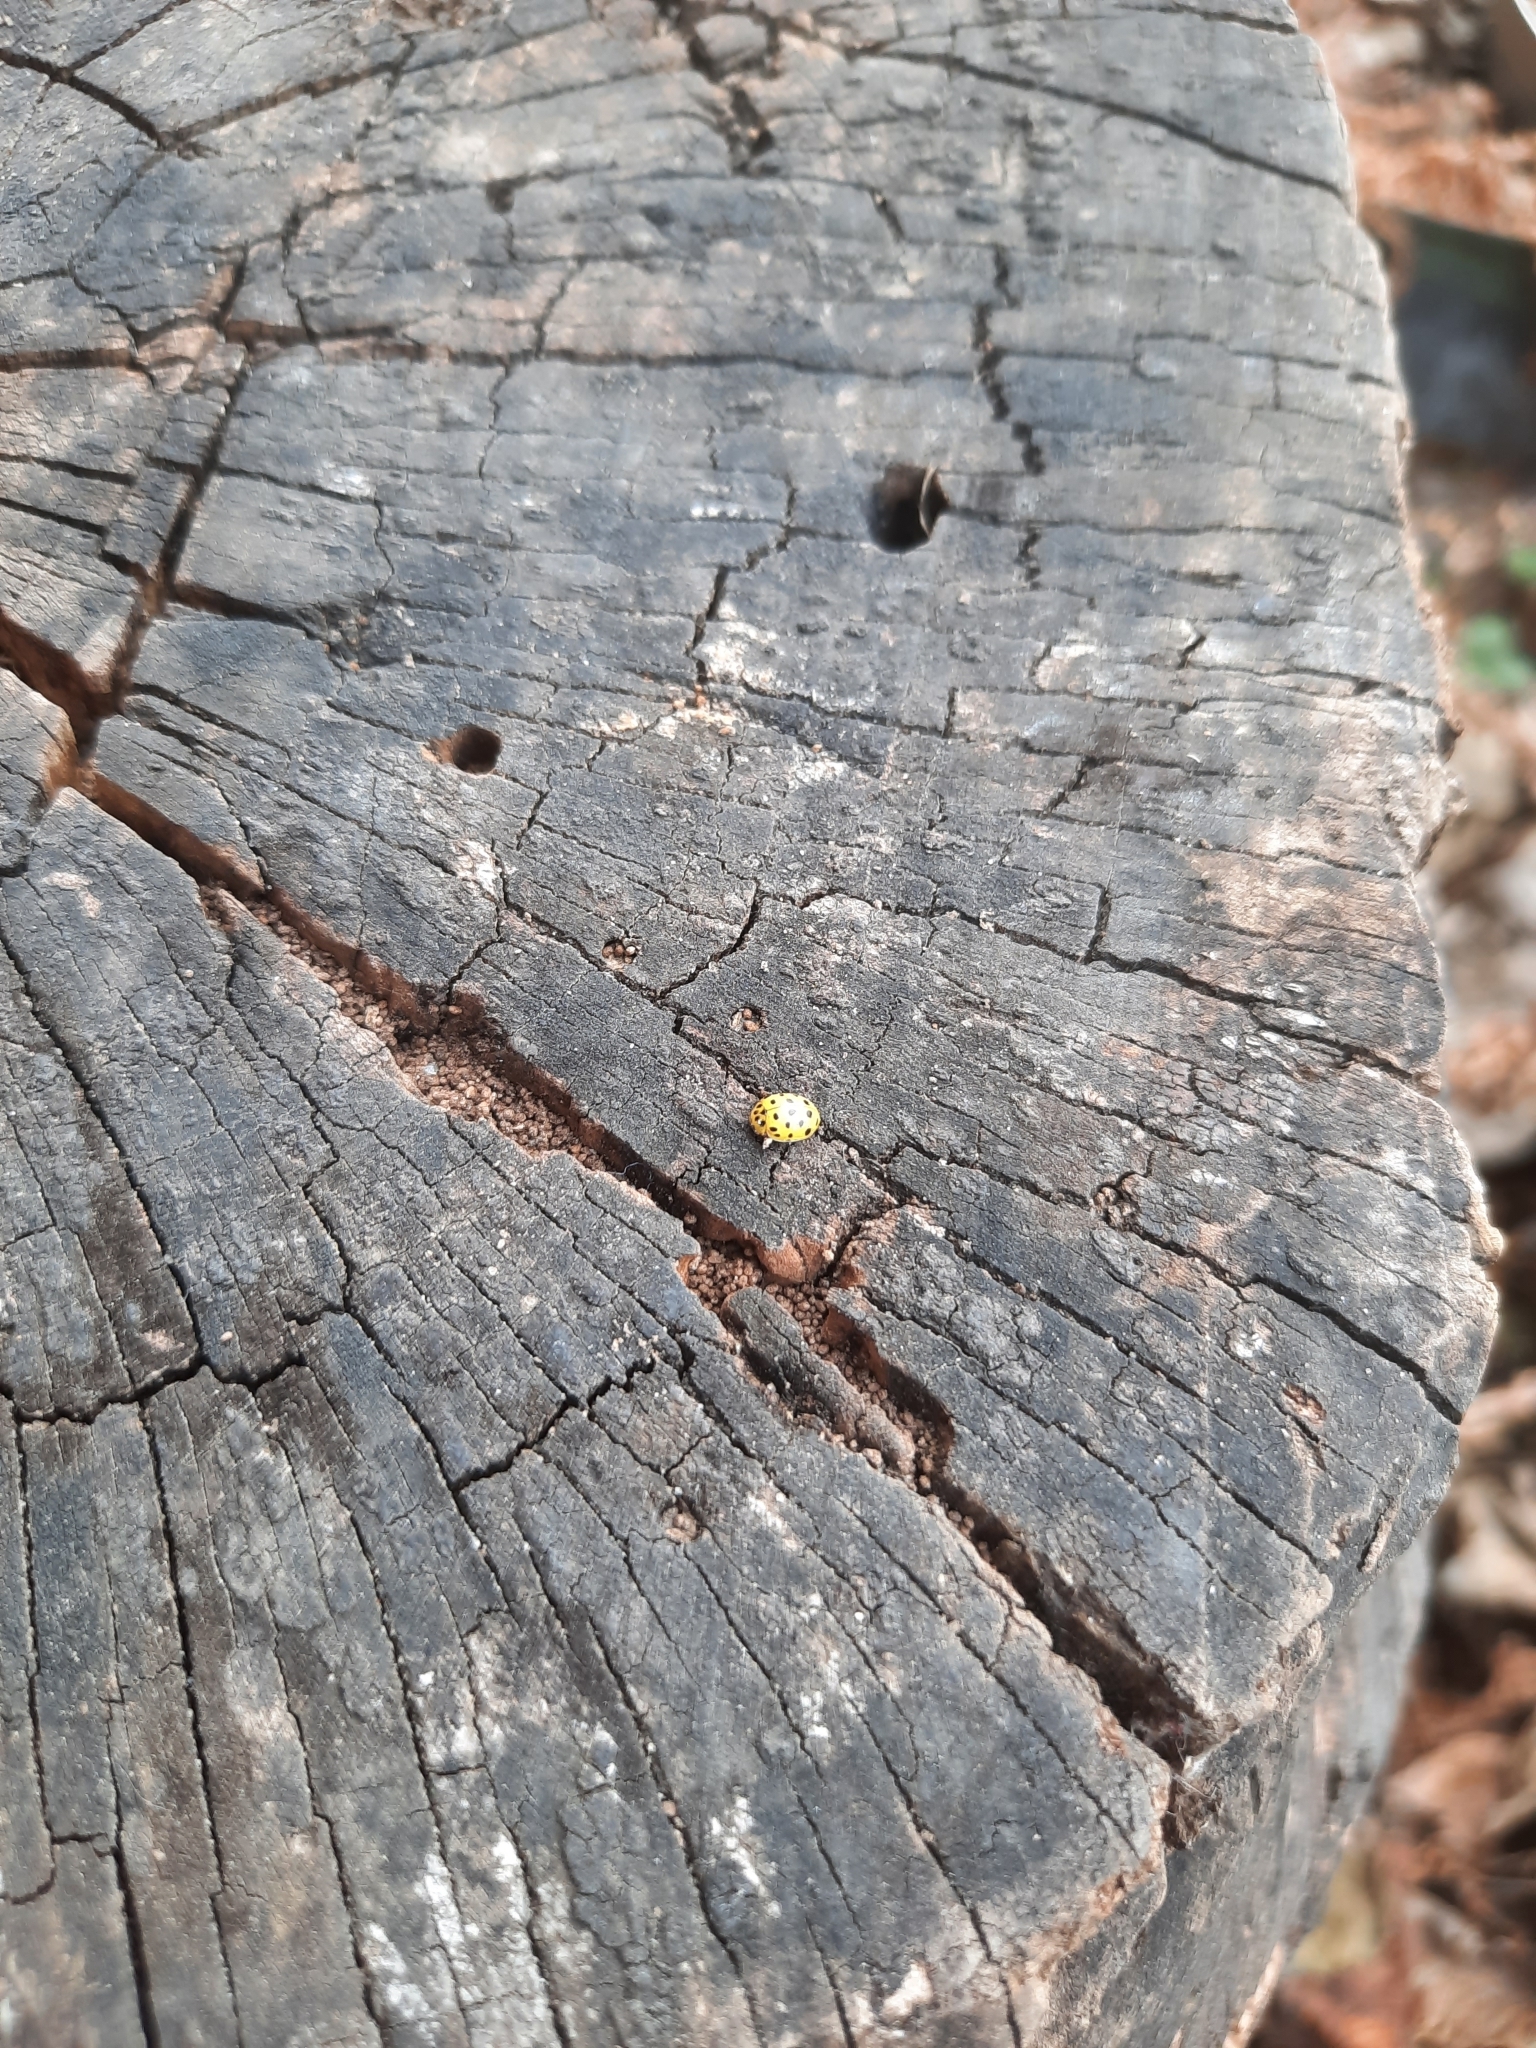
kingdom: Animalia
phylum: Arthropoda
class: Insecta
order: Coleoptera
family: Coccinellidae
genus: Psyllobora
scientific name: Psyllobora vigintiduopunctata
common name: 22-spot ladybird
